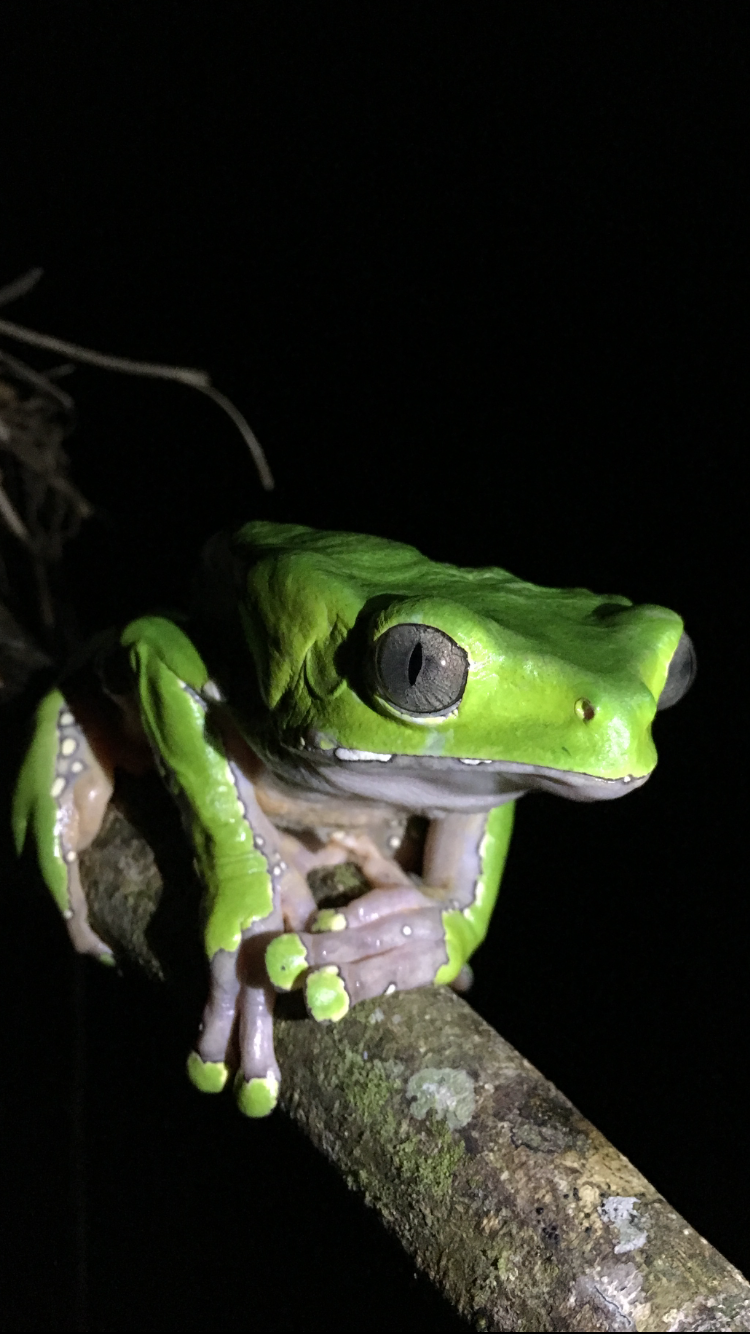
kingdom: Animalia
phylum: Chordata
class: Amphibia
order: Anura
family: Phyllomedusidae
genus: Phyllomedusa
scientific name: Phyllomedusa bicolor
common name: Giant monkey frog
